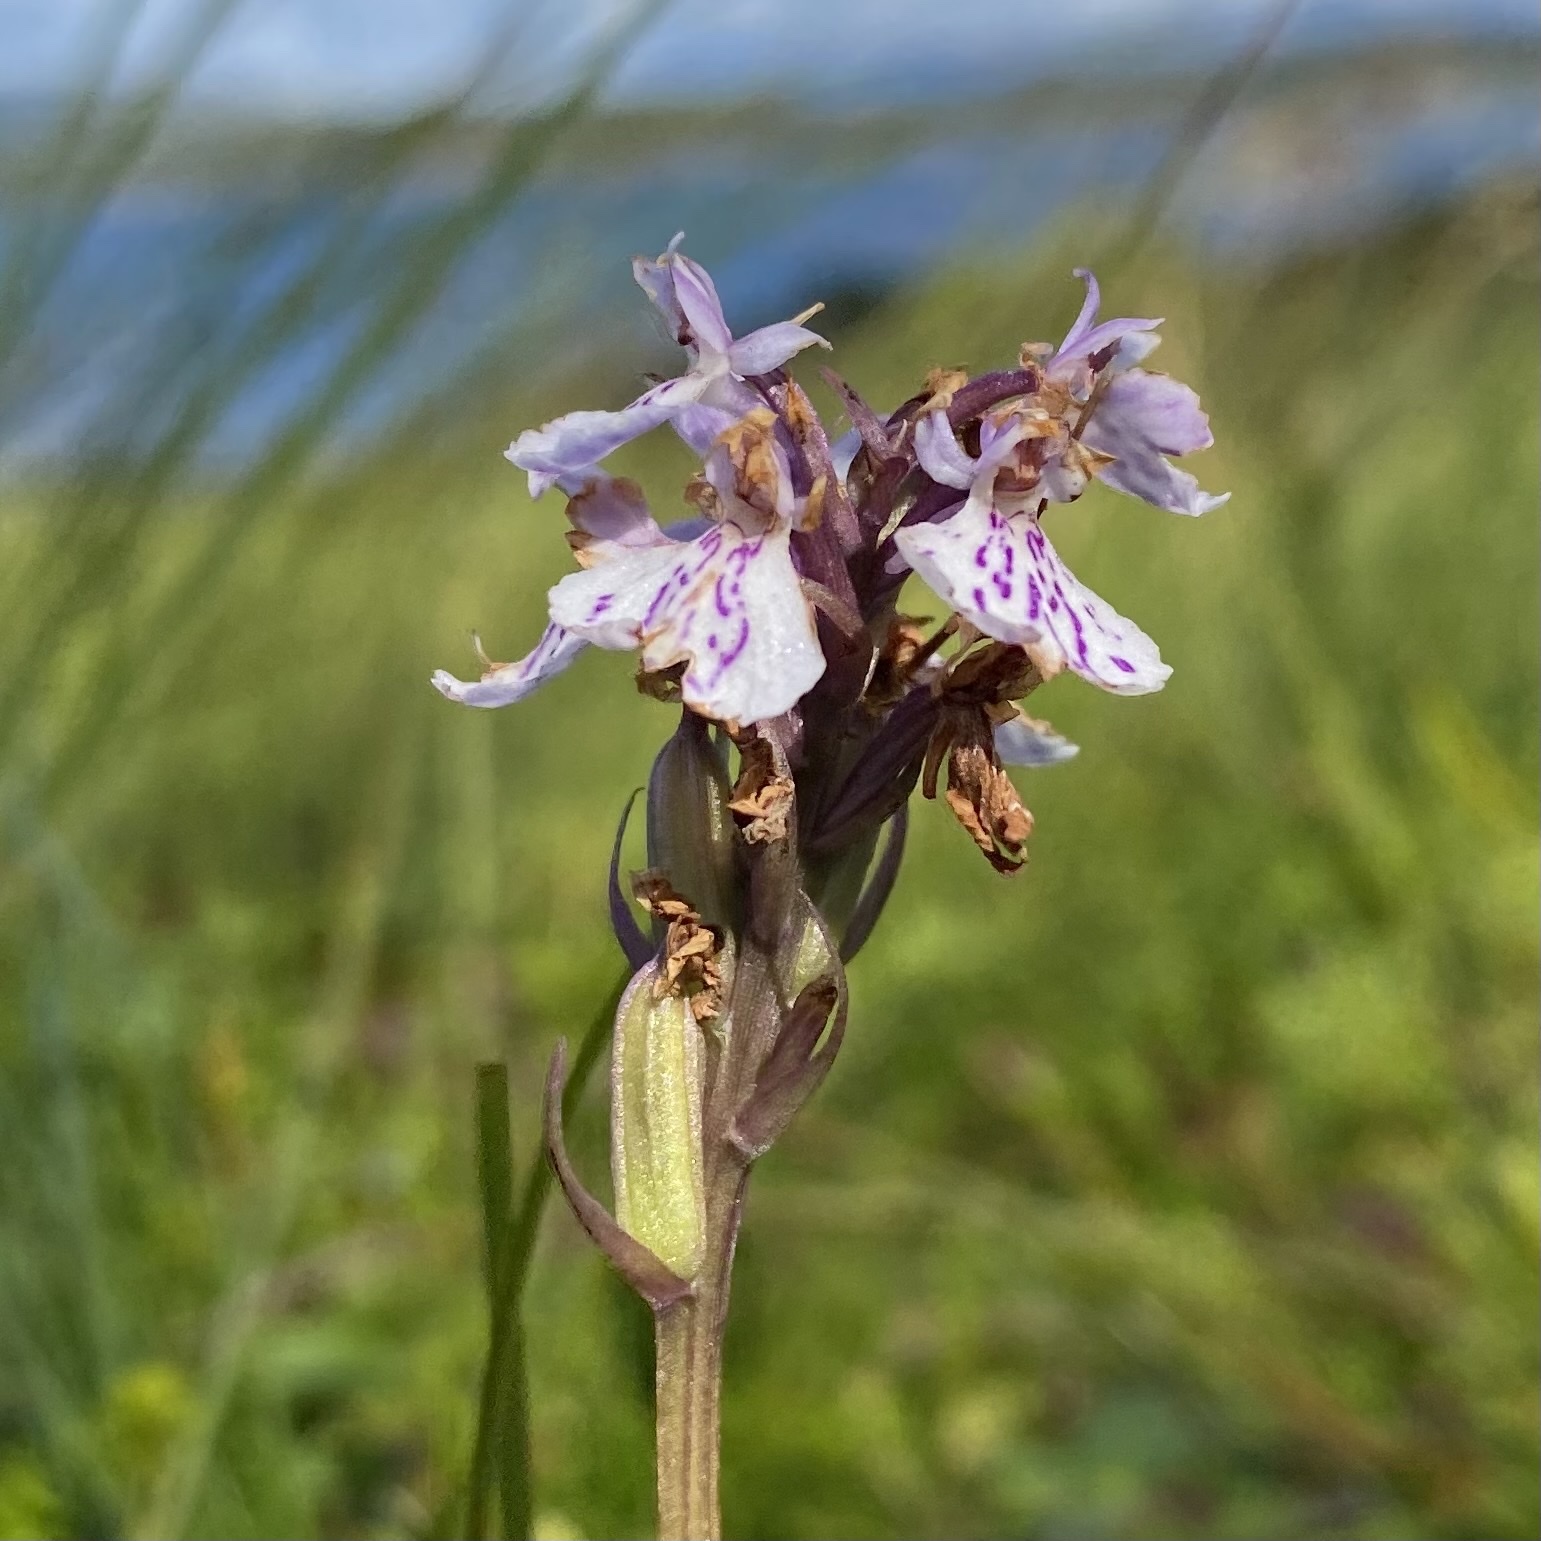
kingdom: Plantae
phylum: Tracheophyta
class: Liliopsida
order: Asparagales
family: Orchidaceae
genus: Dactylorhiza
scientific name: Dactylorhiza maculata
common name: Heath spotted-orchid
